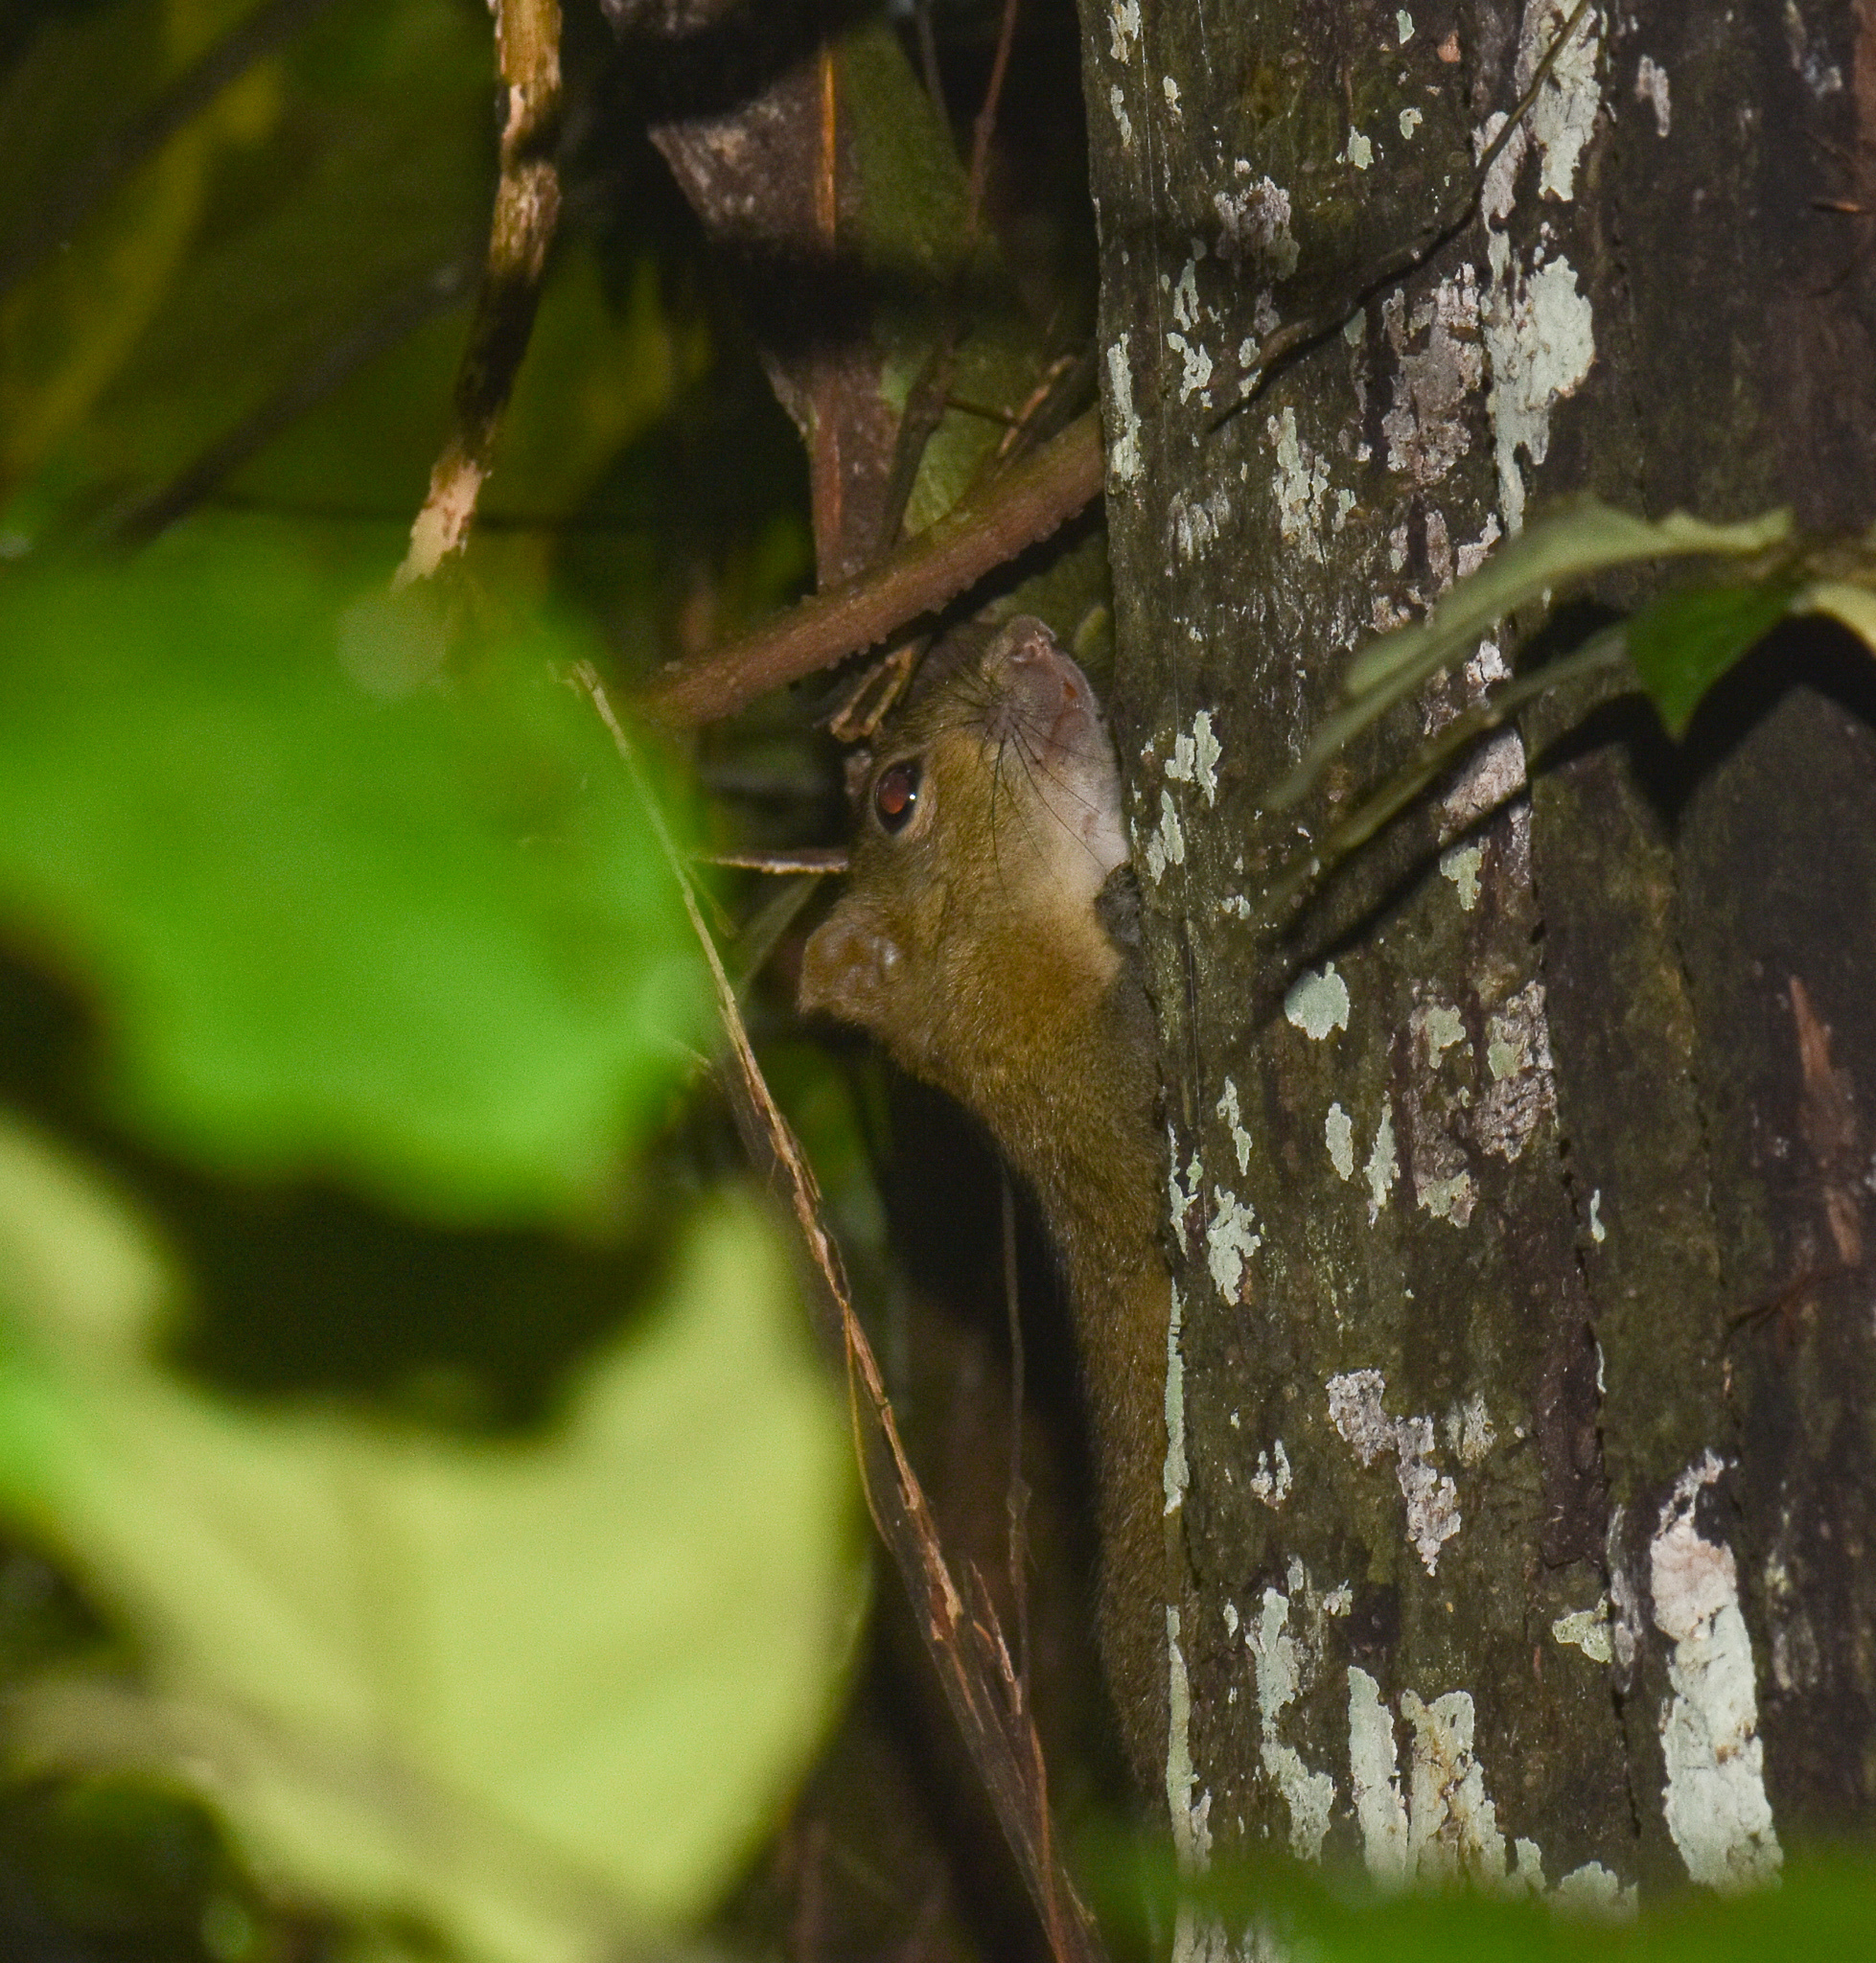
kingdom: Animalia
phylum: Chordata
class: Mammalia
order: Rodentia
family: Sciuridae
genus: Callosciurus
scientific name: Callosciurus pygerythrus
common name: Irrawaddy squirrel
